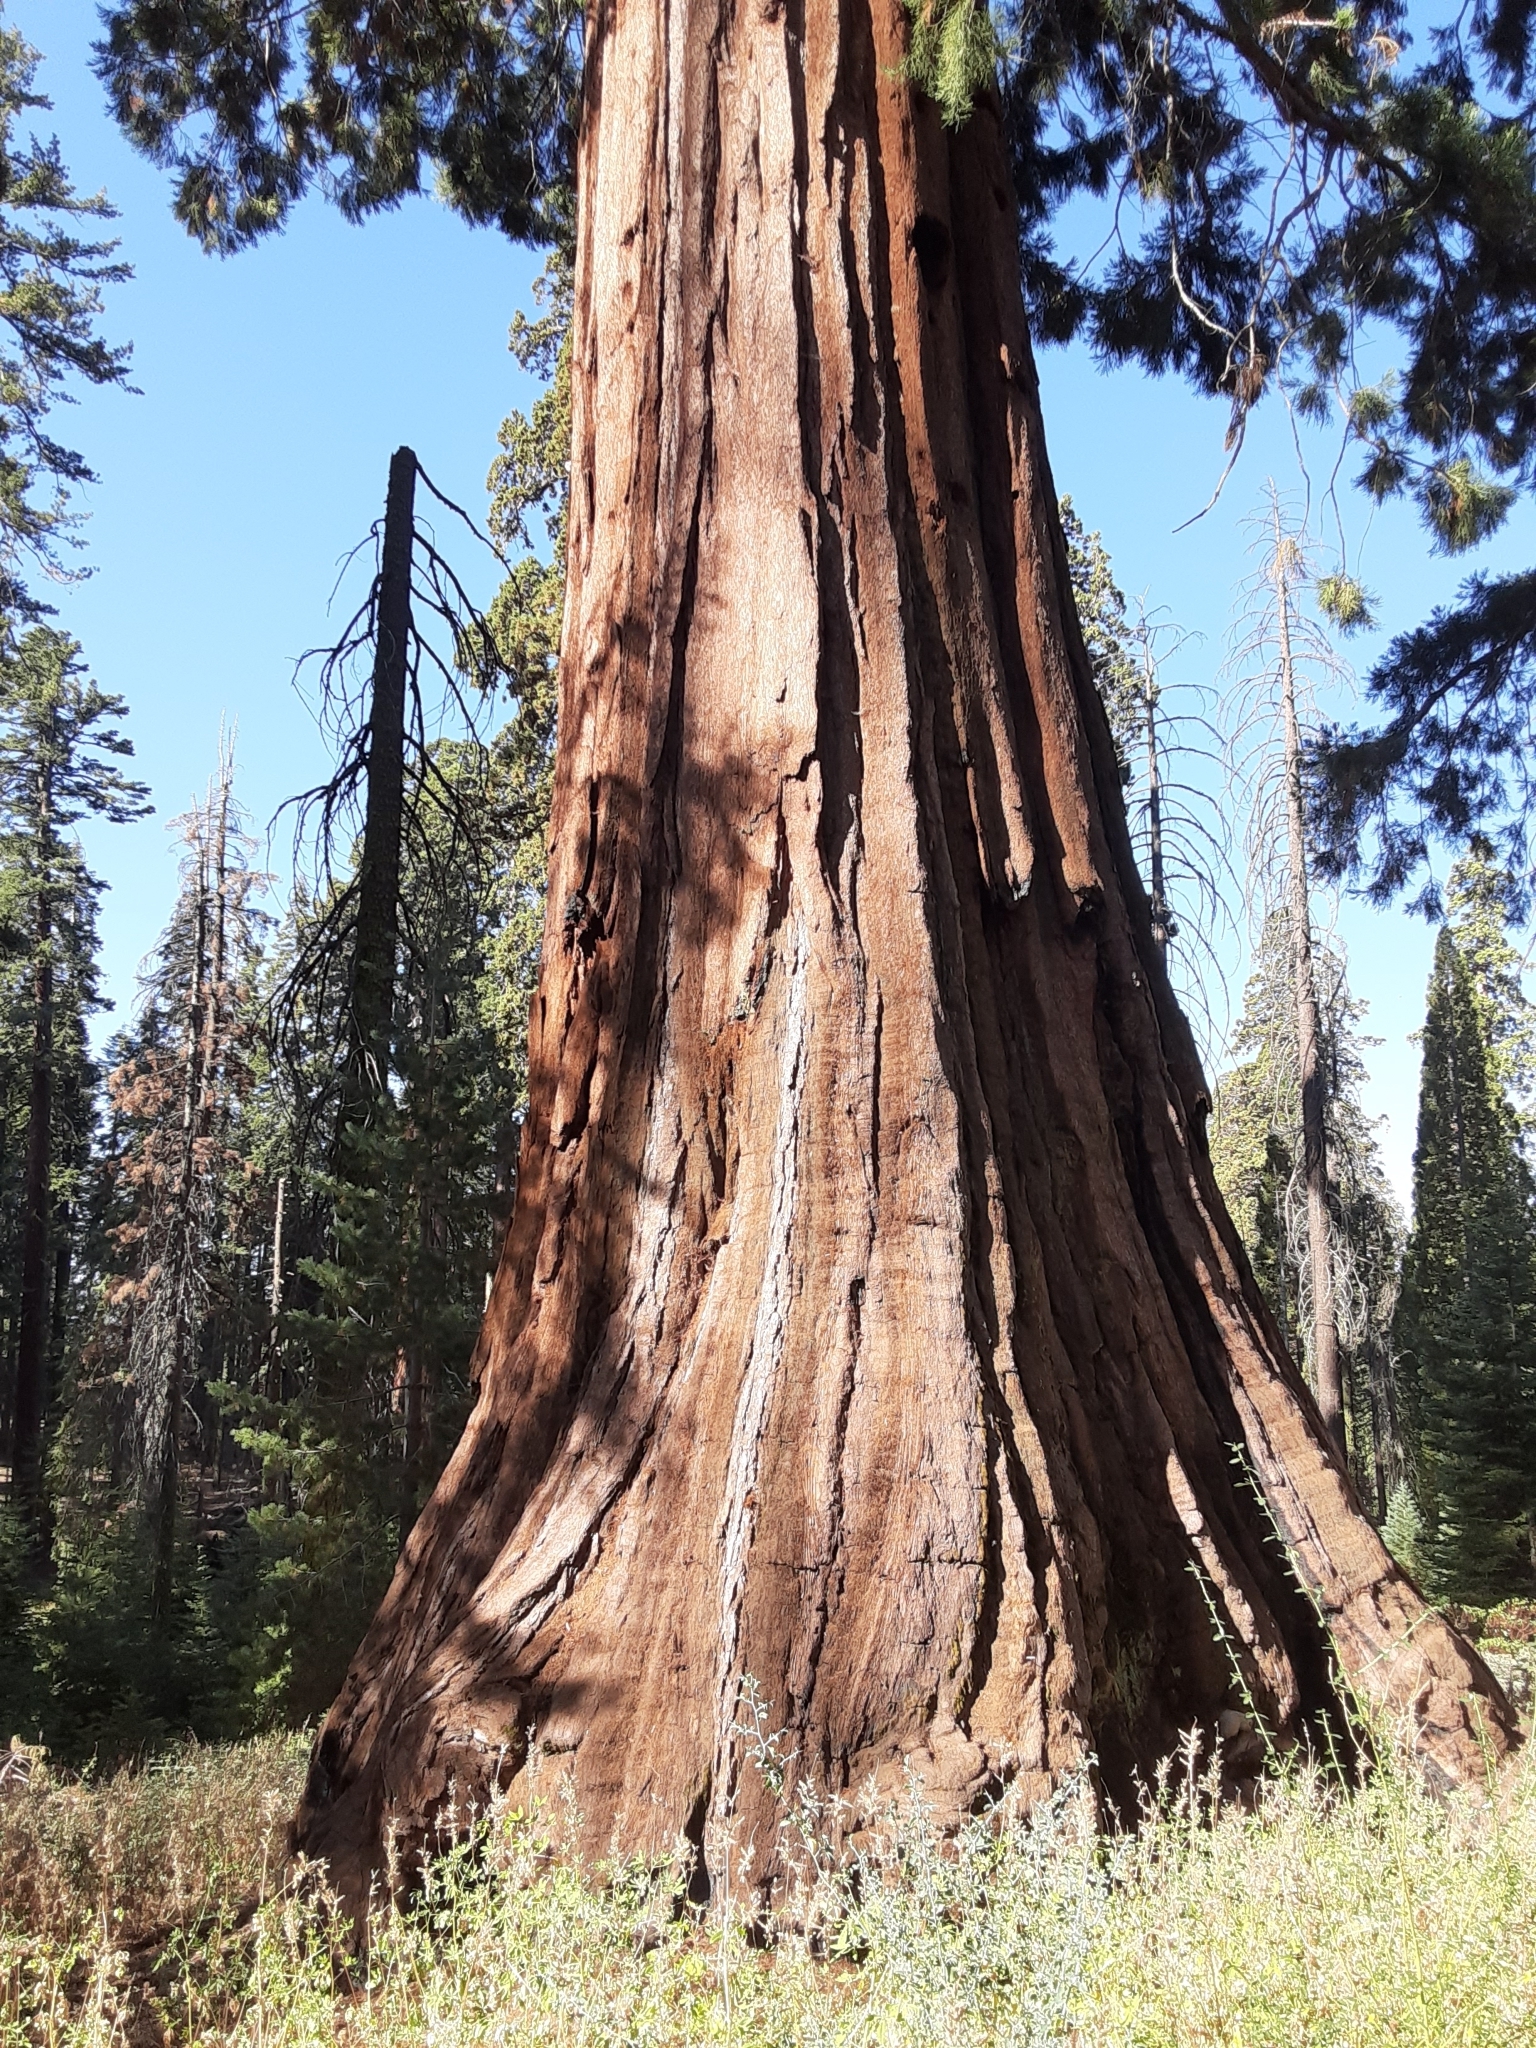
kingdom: Plantae
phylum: Tracheophyta
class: Pinopsida
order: Pinales
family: Cupressaceae
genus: Sequoiadendron
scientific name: Sequoiadendron giganteum
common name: Wellingtonia
